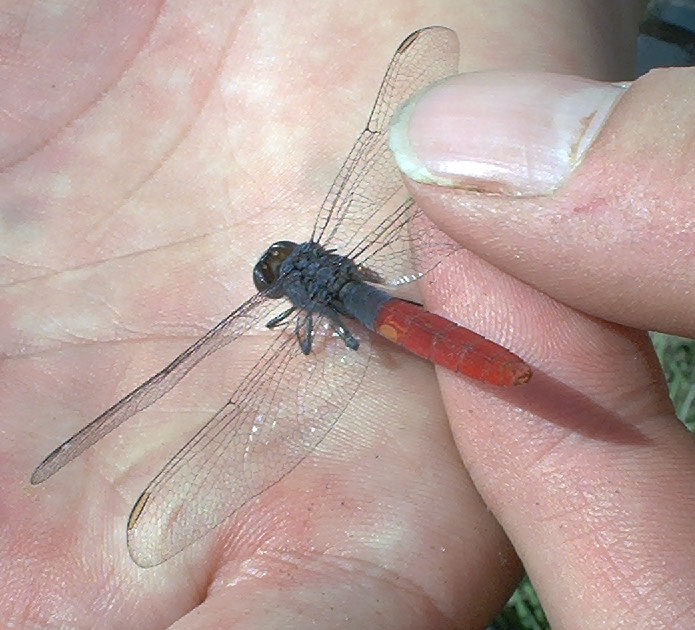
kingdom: Animalia
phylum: Arthropoda
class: Insecta
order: Odonata
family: Libellulidae
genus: Erythemis
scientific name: Erythemis peruviana
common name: Flame-tailed pondhawk
